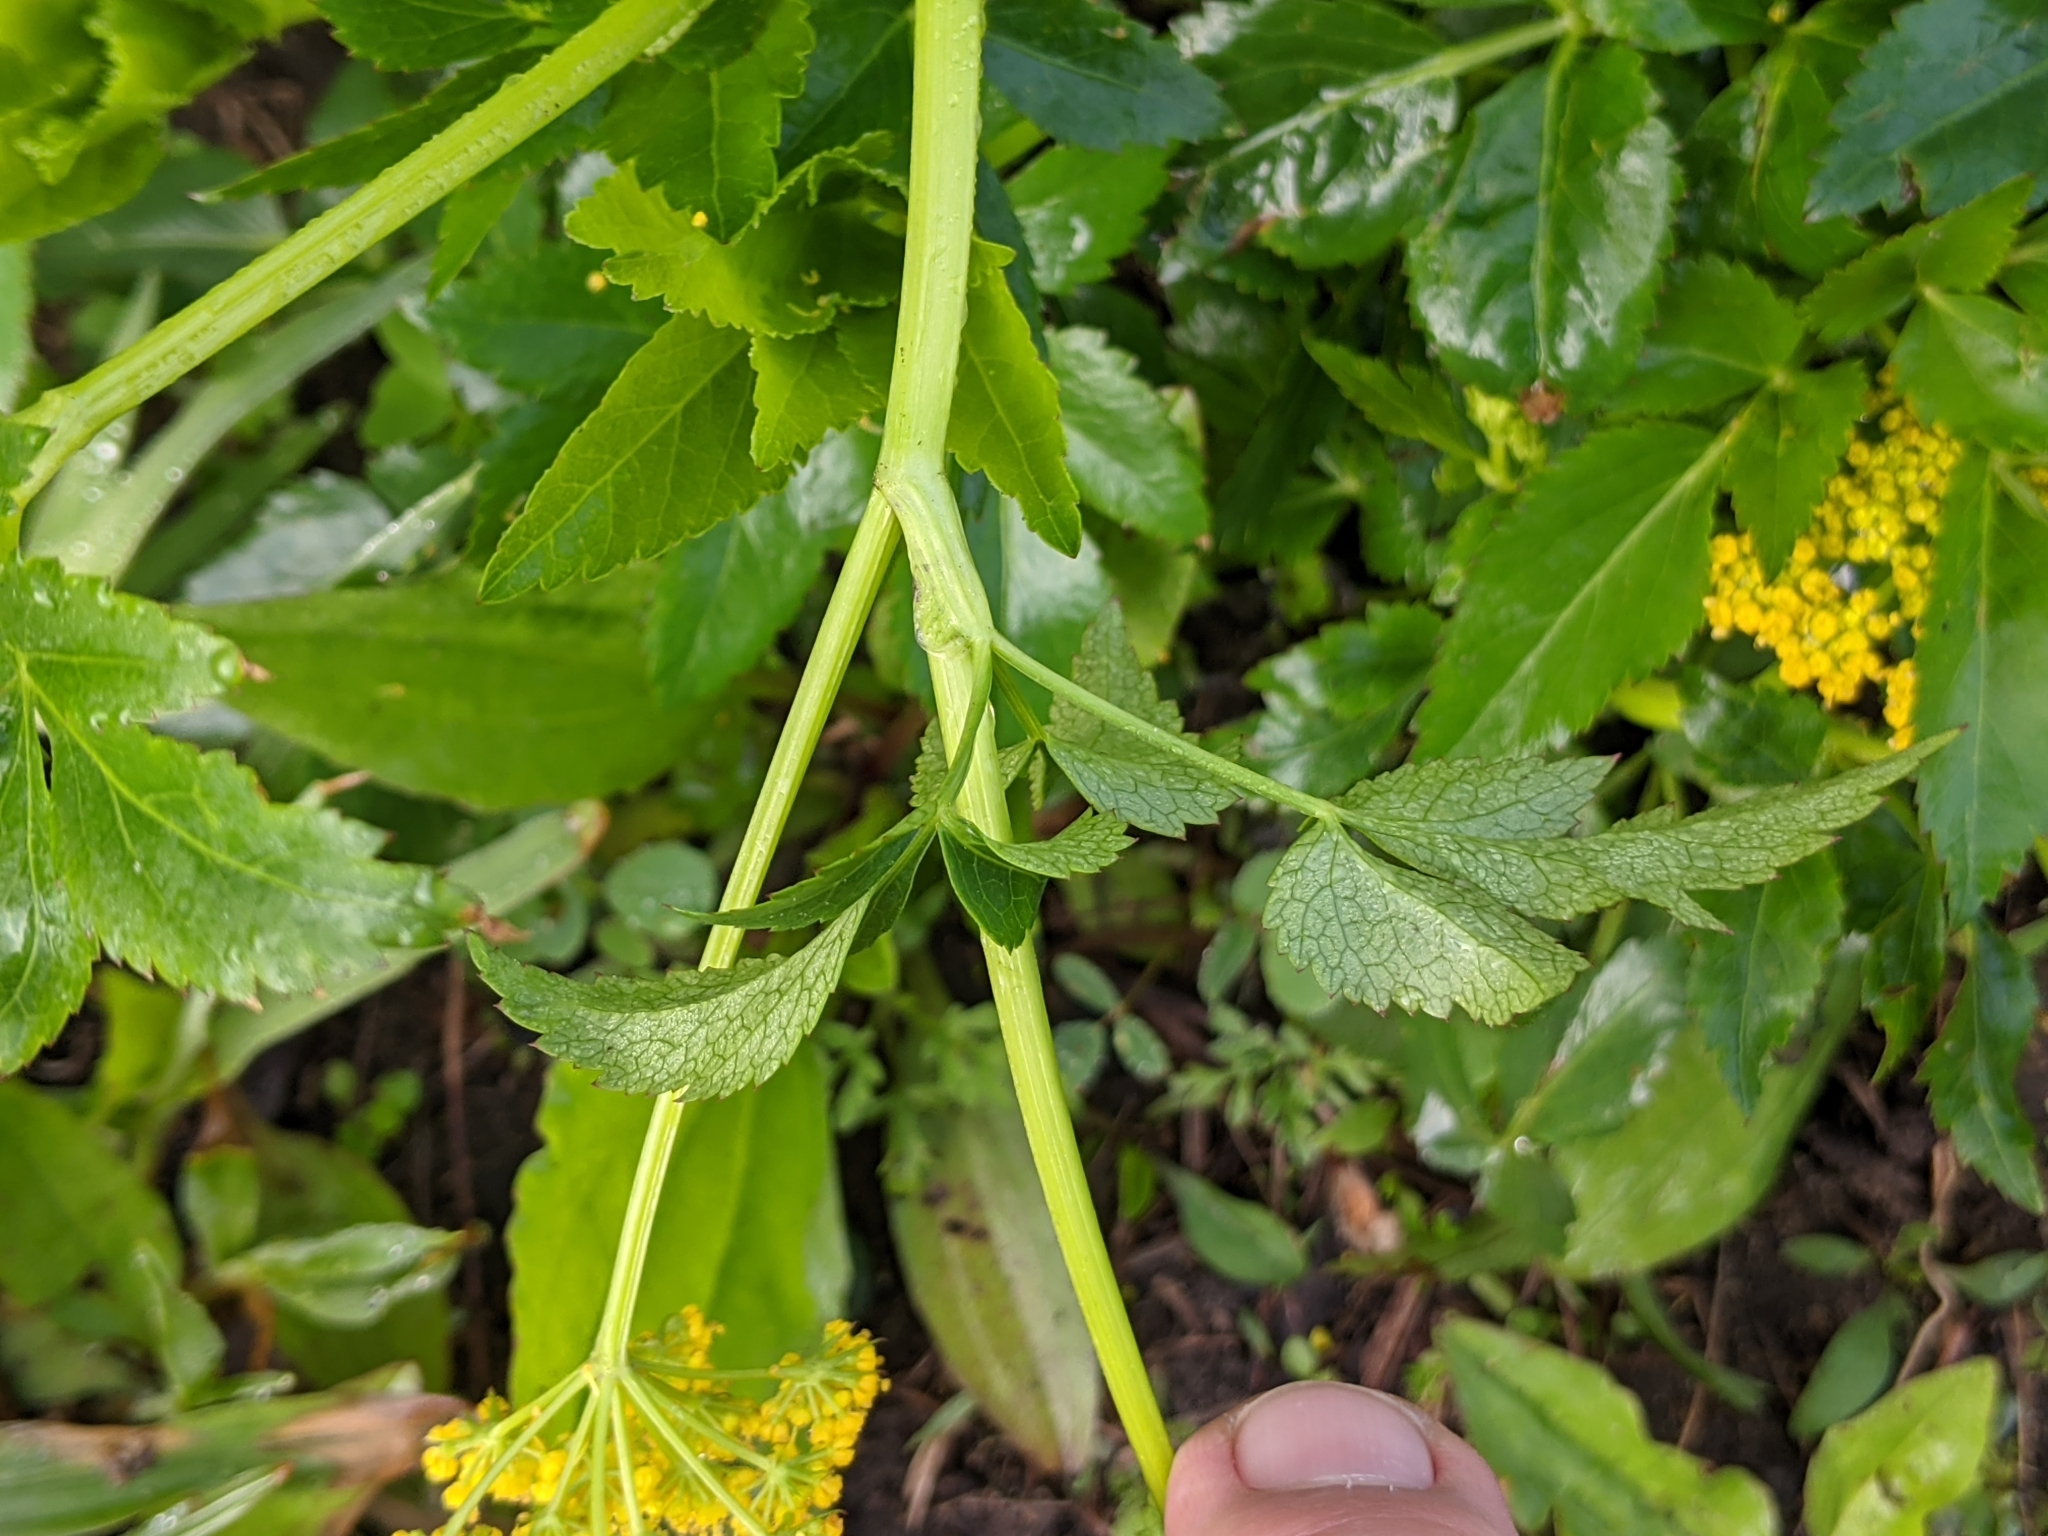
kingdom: Plantae
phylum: Tracheophyta
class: Magnoliopsida
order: Apiales
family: Apiaceae
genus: Zizia
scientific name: Zizia aurea
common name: Golden alexanders
